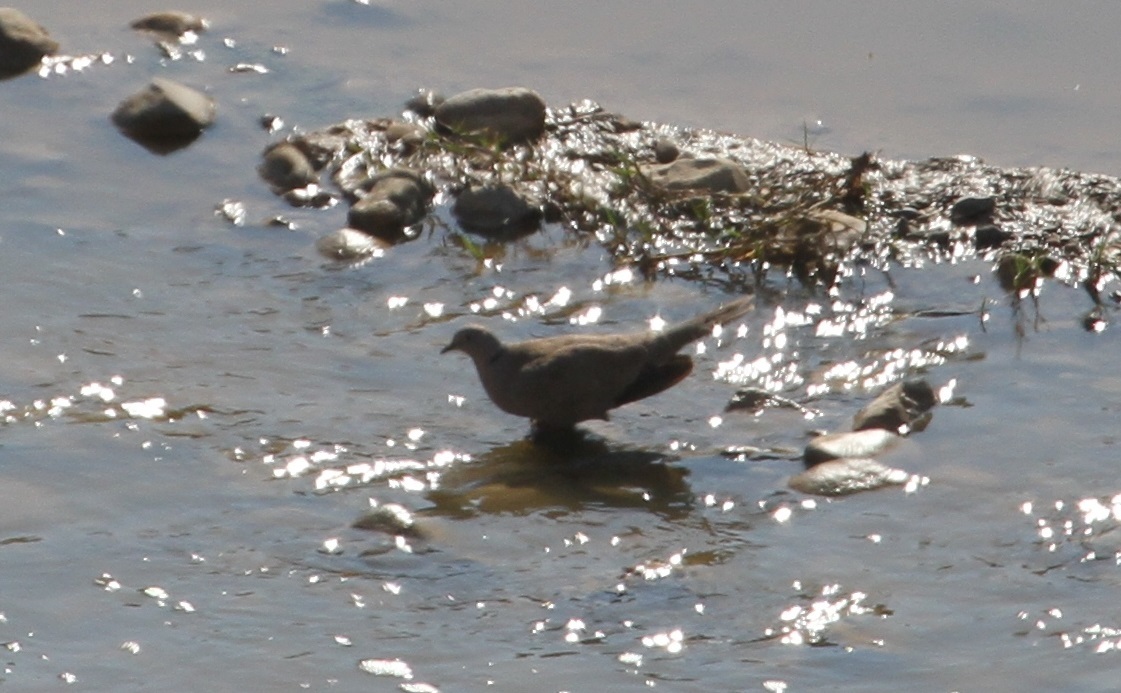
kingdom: Animalia
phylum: Chordata
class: Aves
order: Columbiformes
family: Columbidae
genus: Streptopelia
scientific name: Streptopelia decaocto
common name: Eurasian collared dove
